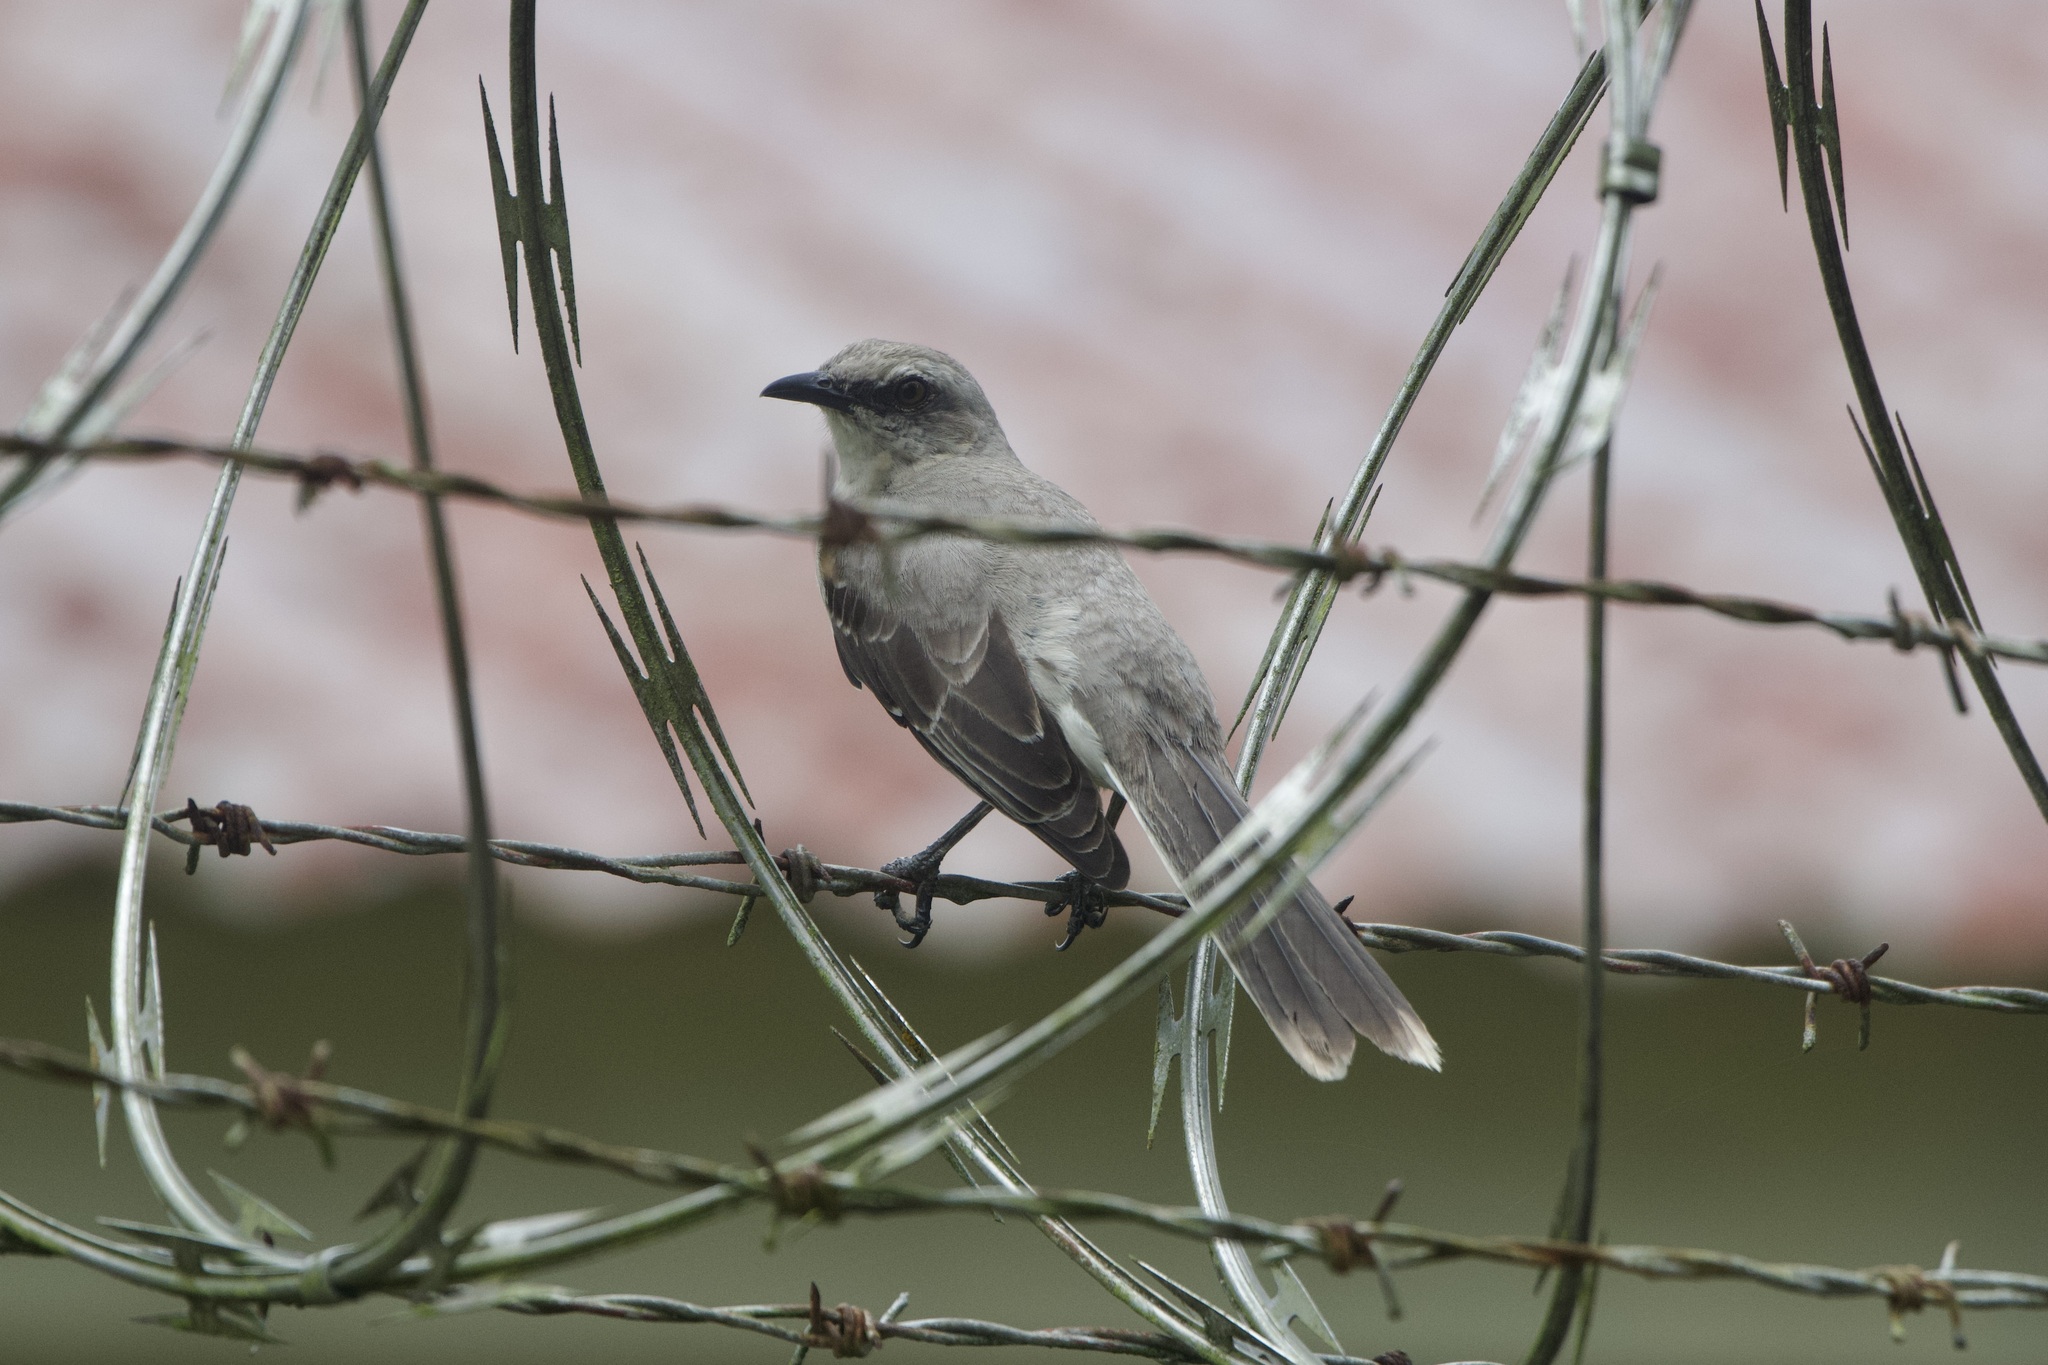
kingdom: Animalia
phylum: Chordata
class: Aves
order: Passeriformes
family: Mimidae
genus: Mimus
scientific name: Mimus gilvus
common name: Tropical mockingbird
